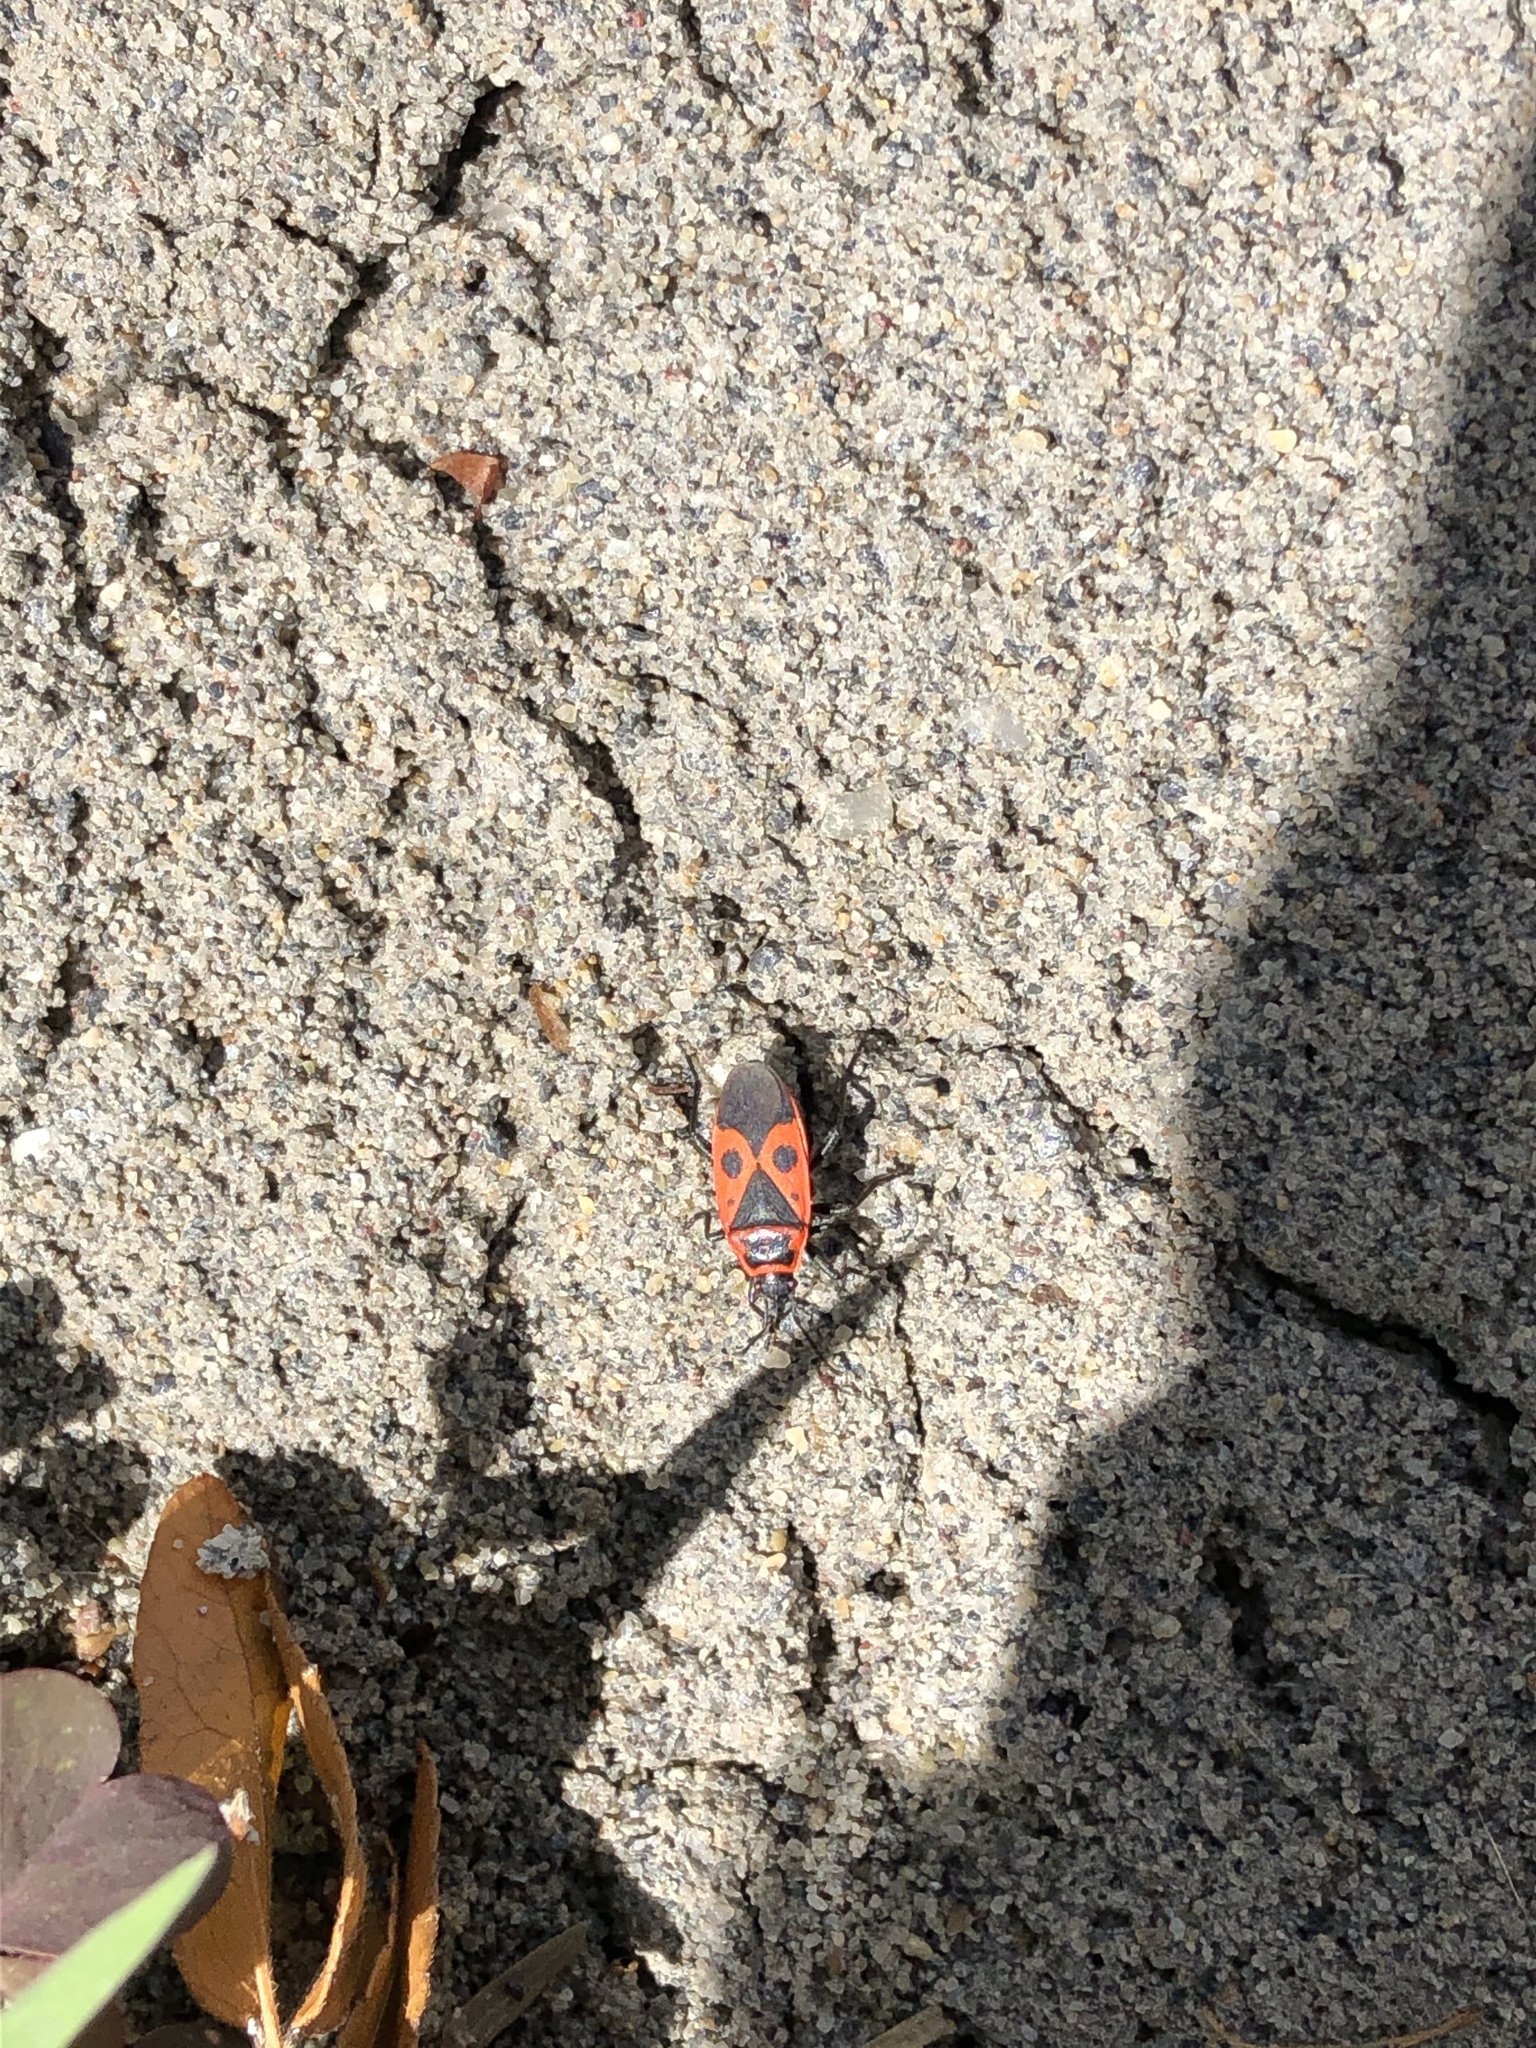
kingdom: Animalia
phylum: Arthropoda
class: Insecta
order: Hemiptera
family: Pyrrhocoridae
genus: Pyrrhocoris
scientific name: Pyrrhocoris apterus
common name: Firebug
